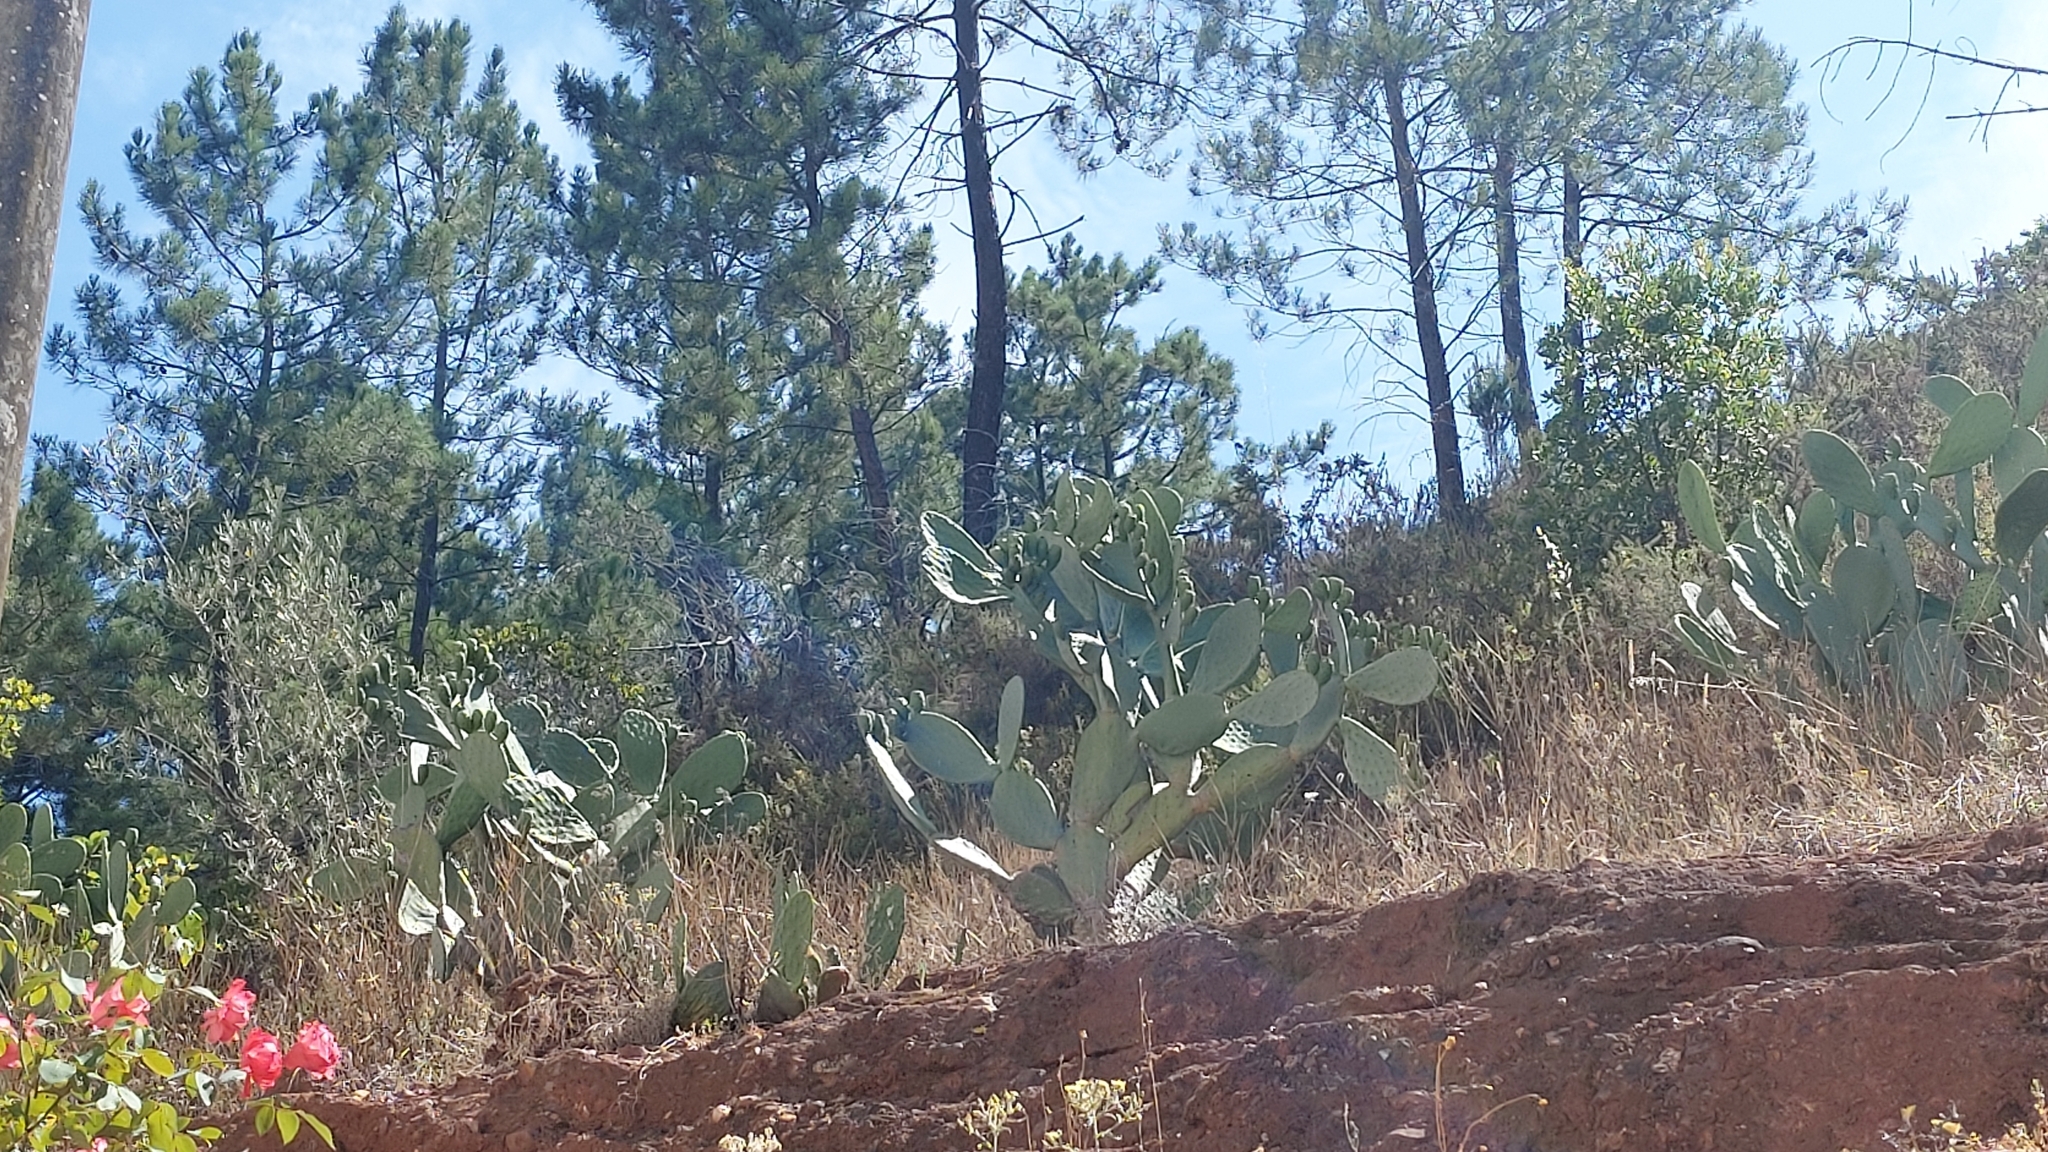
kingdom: Plantae
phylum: Tracheophyta
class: Magnoliopsida
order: Caryophyllales
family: Cactaceae
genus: Opuntia
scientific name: Opuntia ficus-indica
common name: Barbary fig
